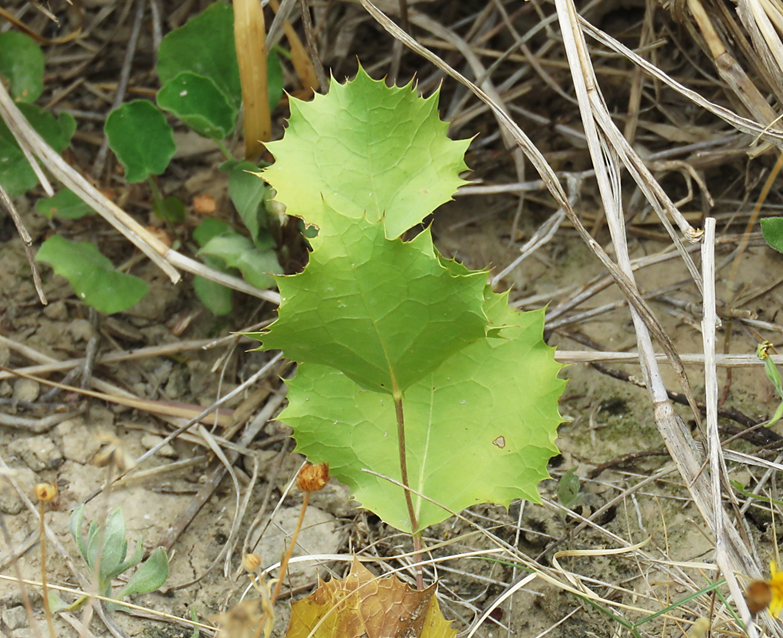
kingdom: Plantae
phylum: Tracheophyta
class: Magnoliopsida
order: Asterales
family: Asteraceae
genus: Acourtia
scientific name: Acourtia nana
